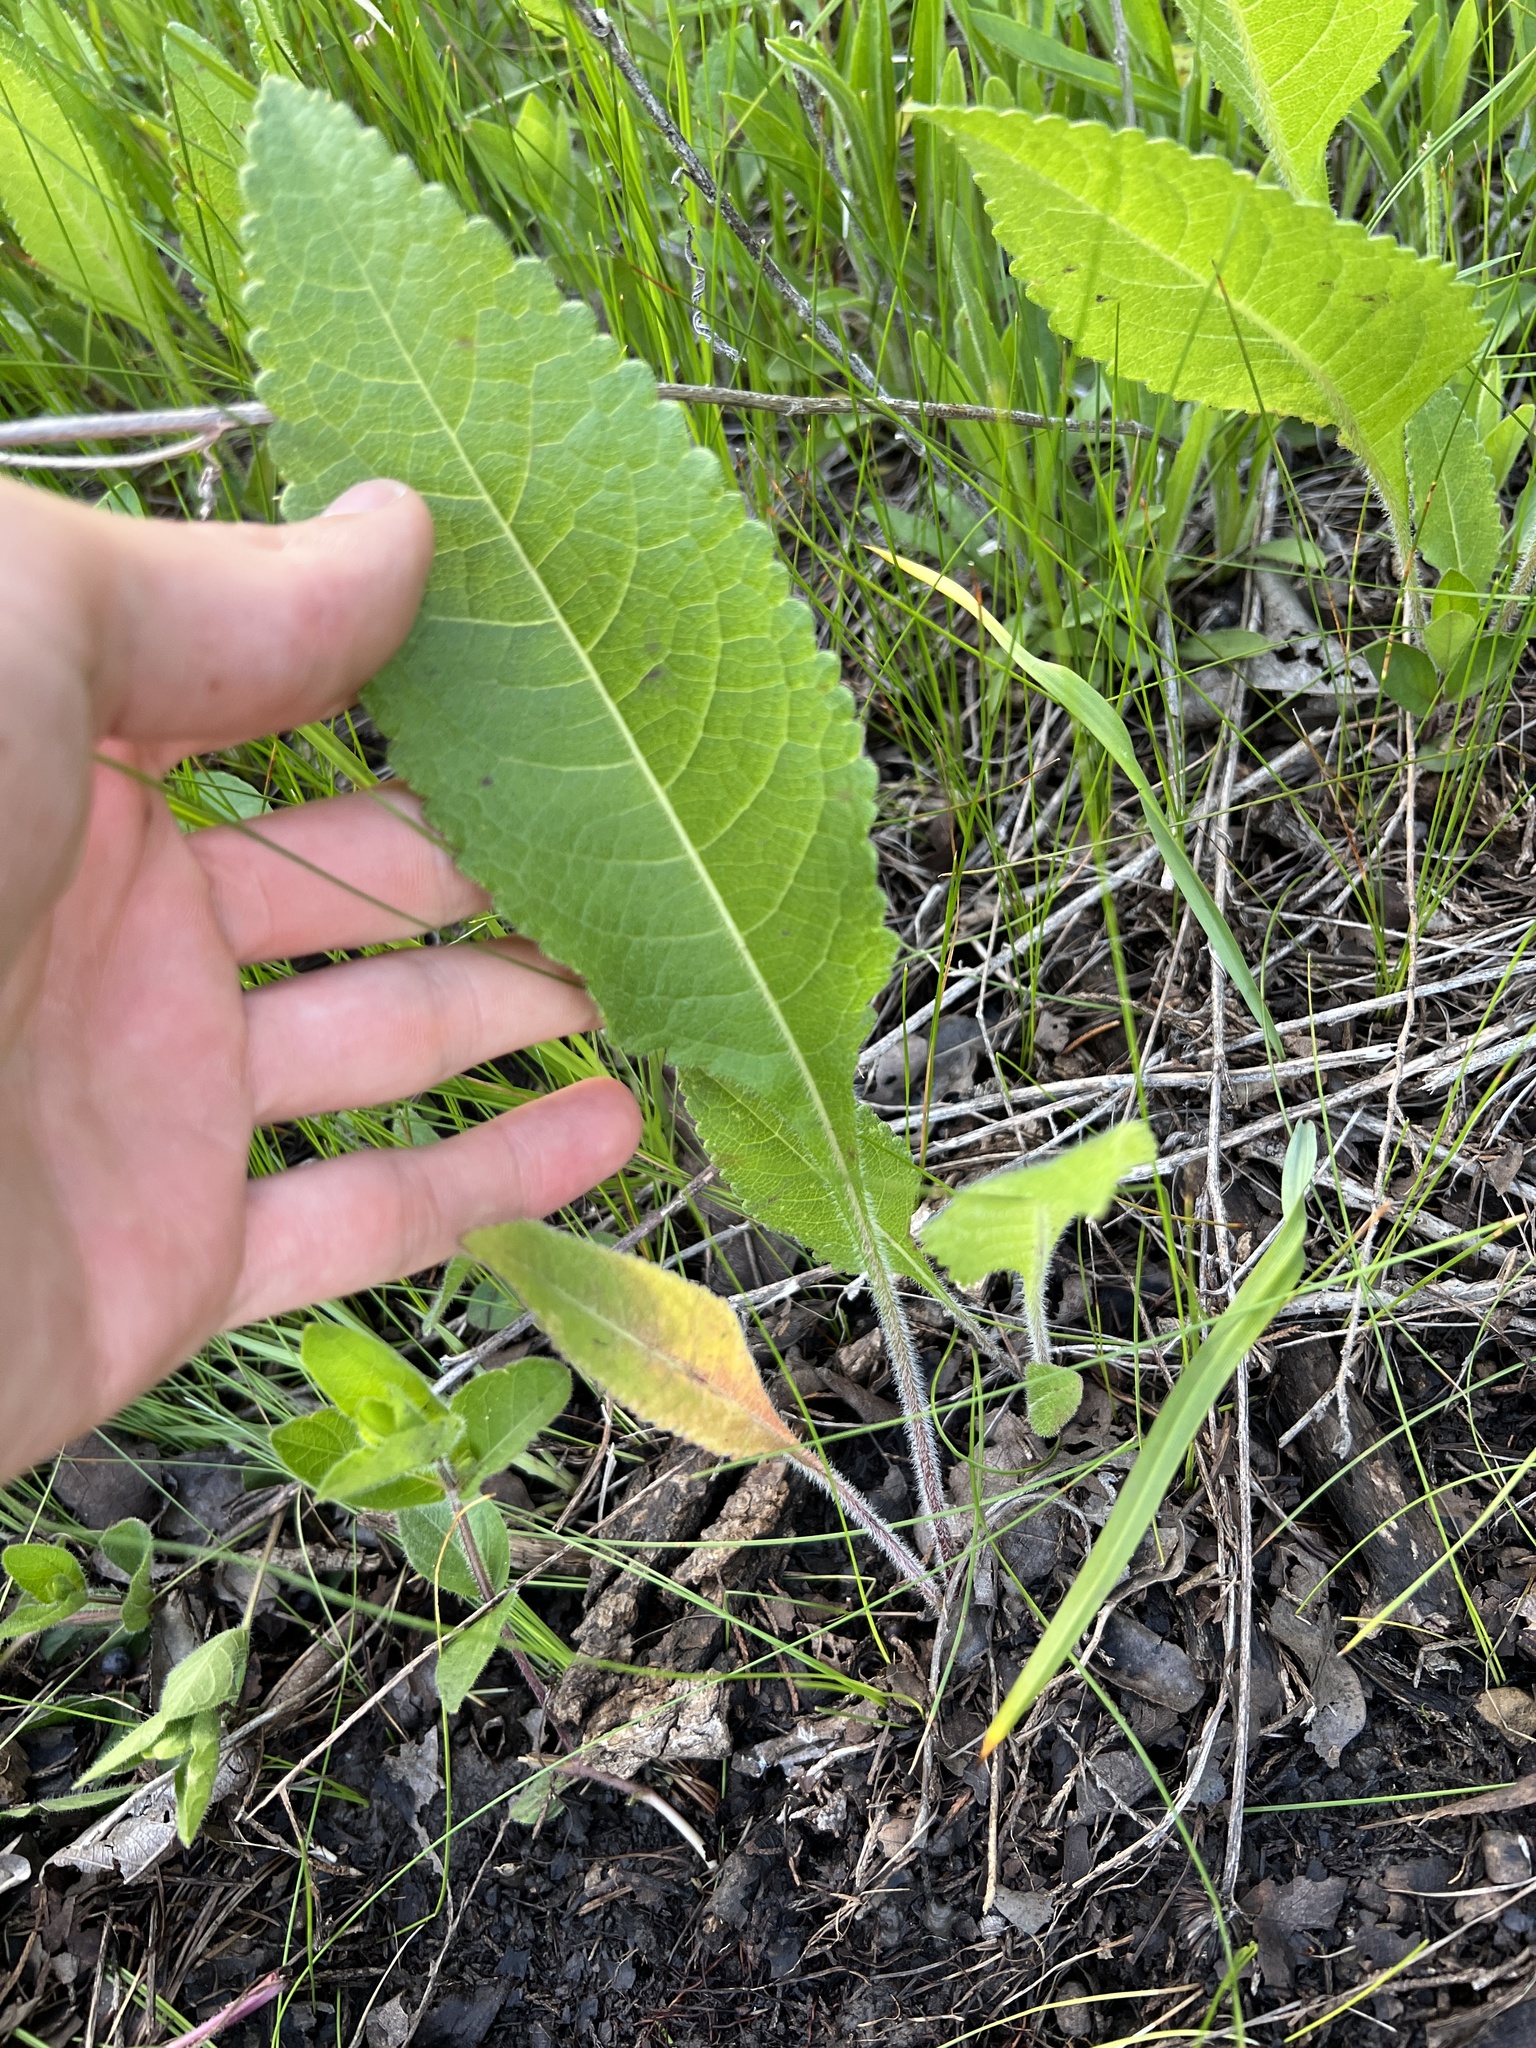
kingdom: Plantae
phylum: Tracheophyta
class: Magnoliopsida
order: Asterales
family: Asteraceae
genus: Parthenium
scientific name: Parthenium hispidum
